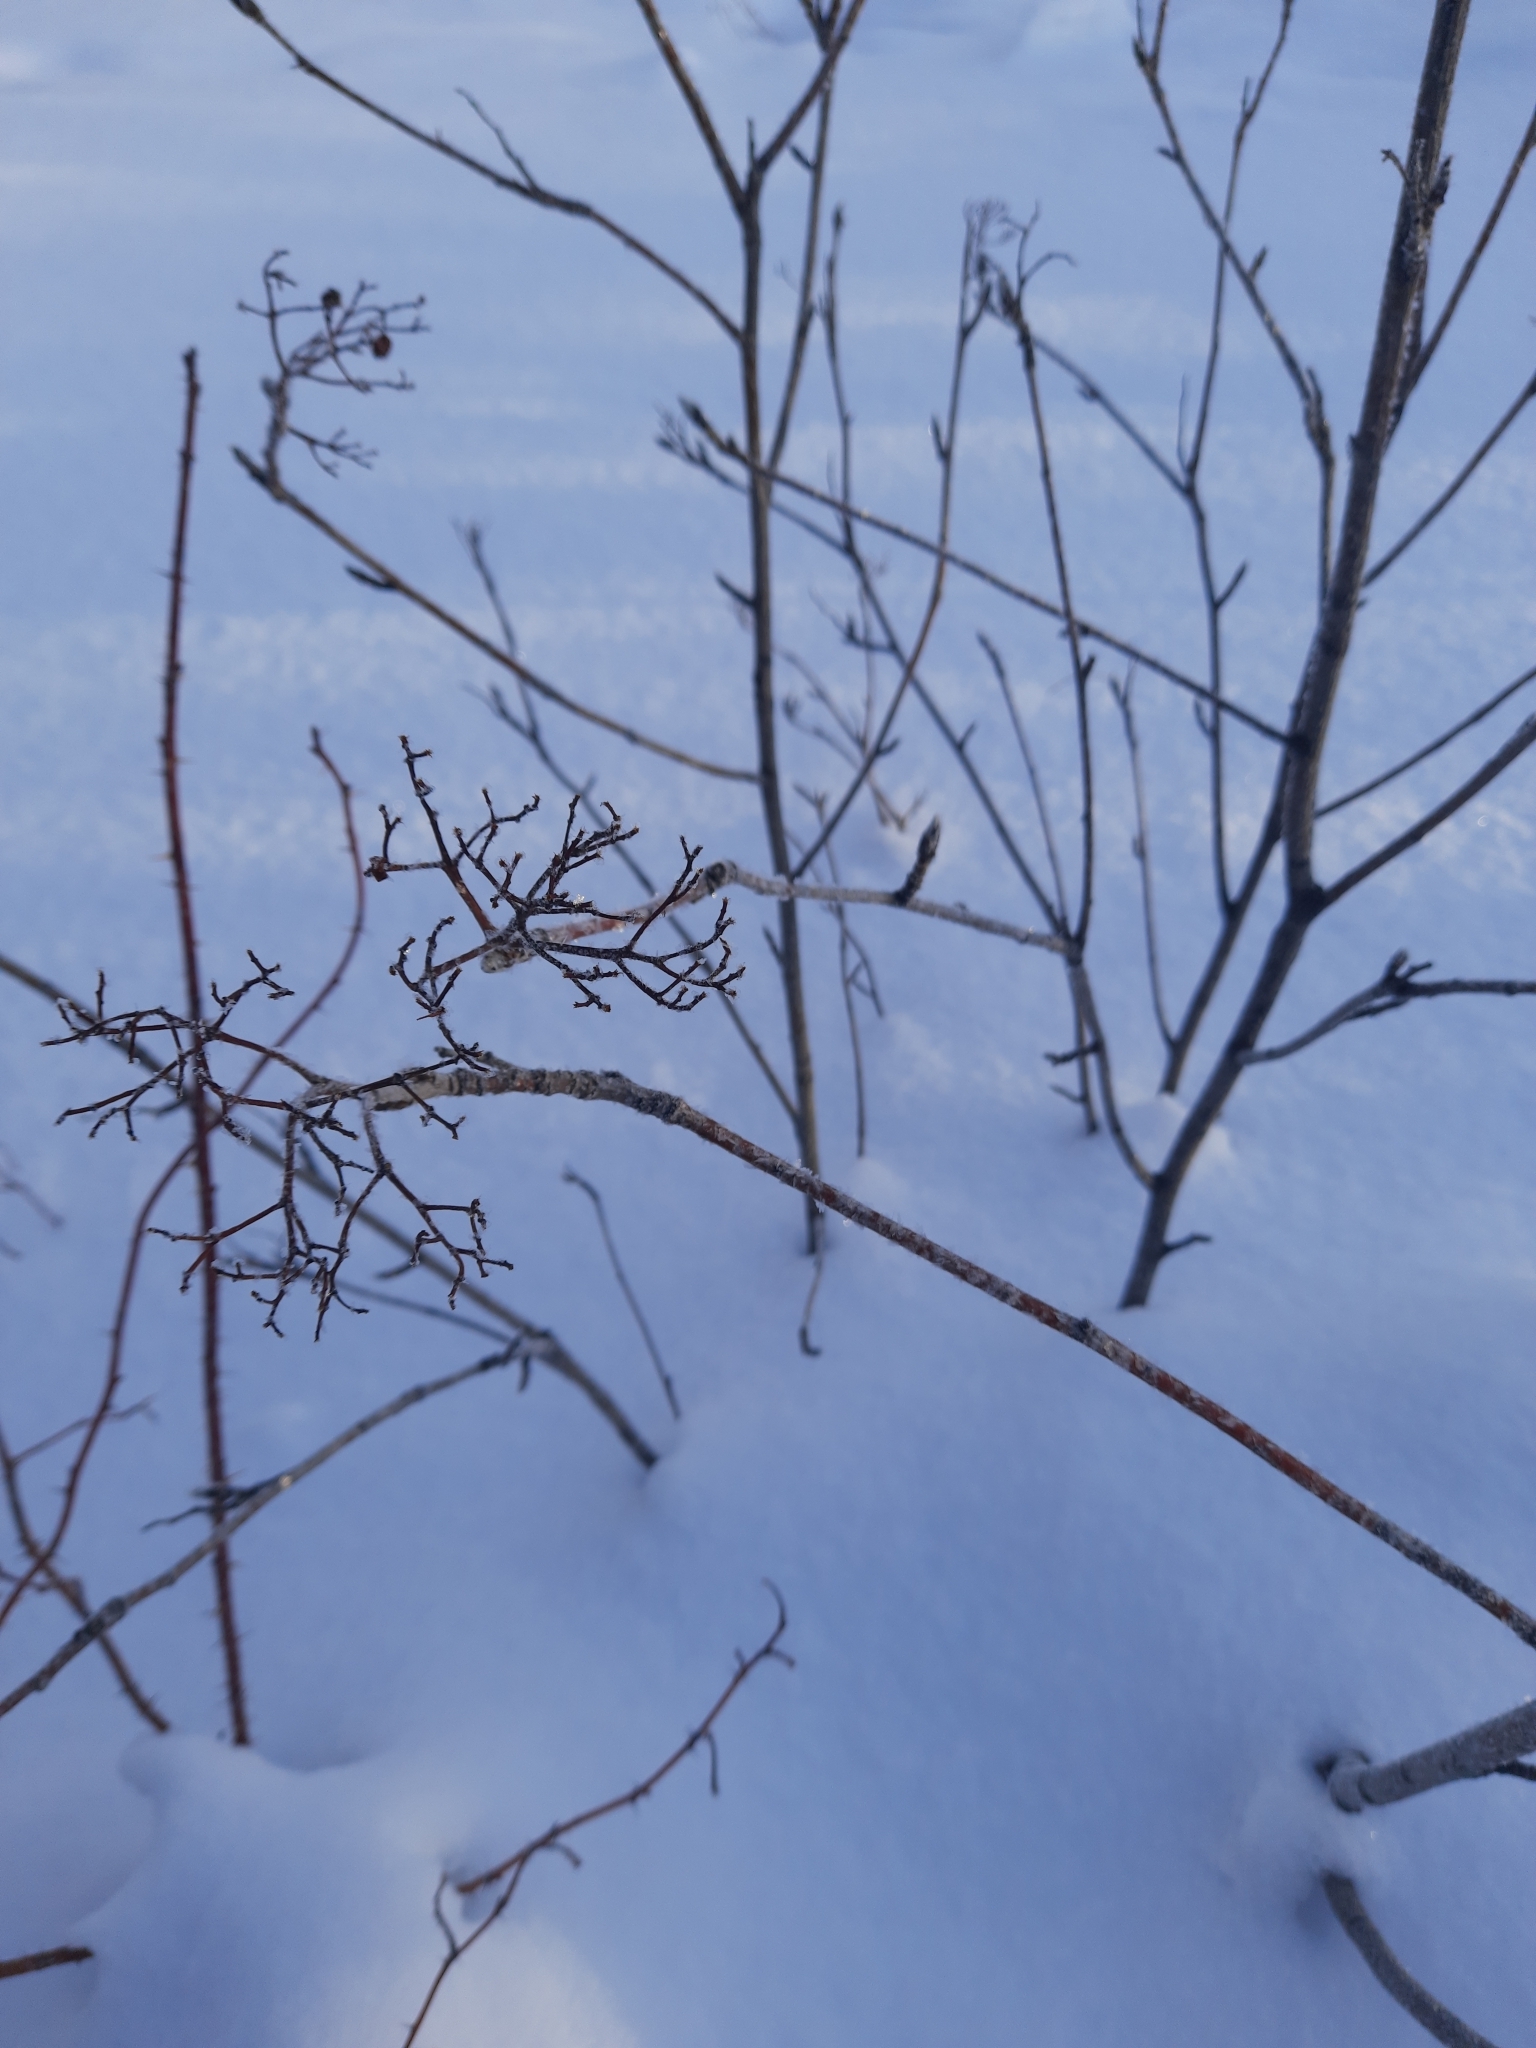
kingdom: Plantae
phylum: Tracheophyta
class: Magnoliopsida
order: Rosales
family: Rosaceae
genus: Sorbus
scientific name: Sorbus aucuparia
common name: Rowan
